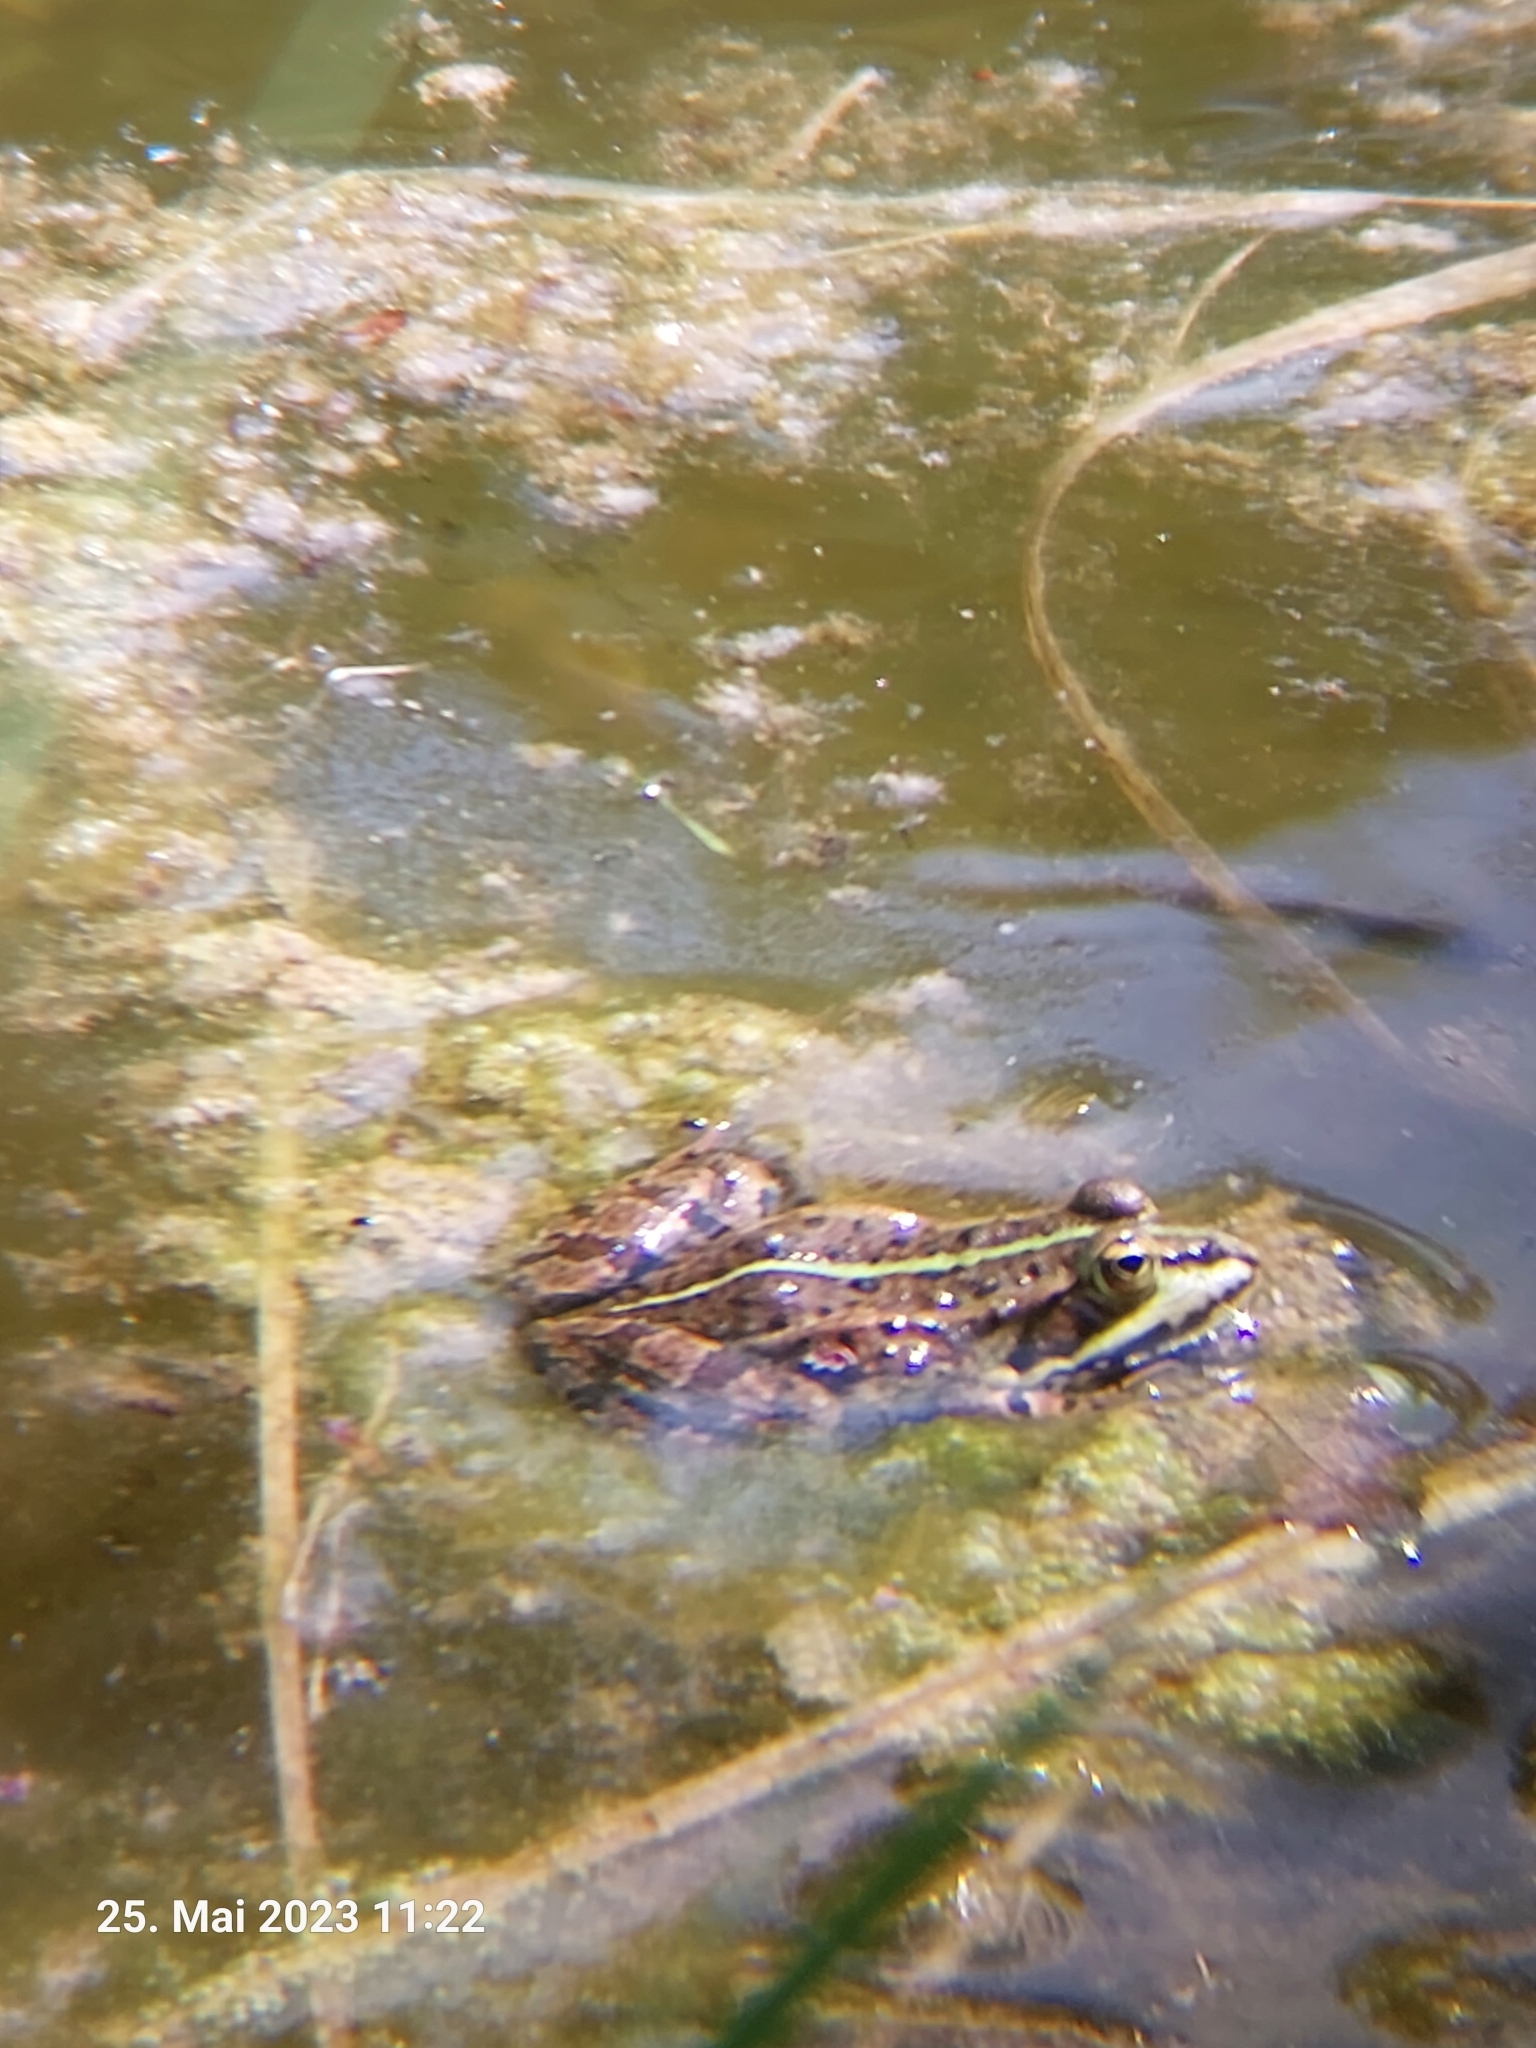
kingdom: Animalia
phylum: Chordata
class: Amphibia
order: Anura
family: Ranidae
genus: Pelophylax
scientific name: Pelophylax
